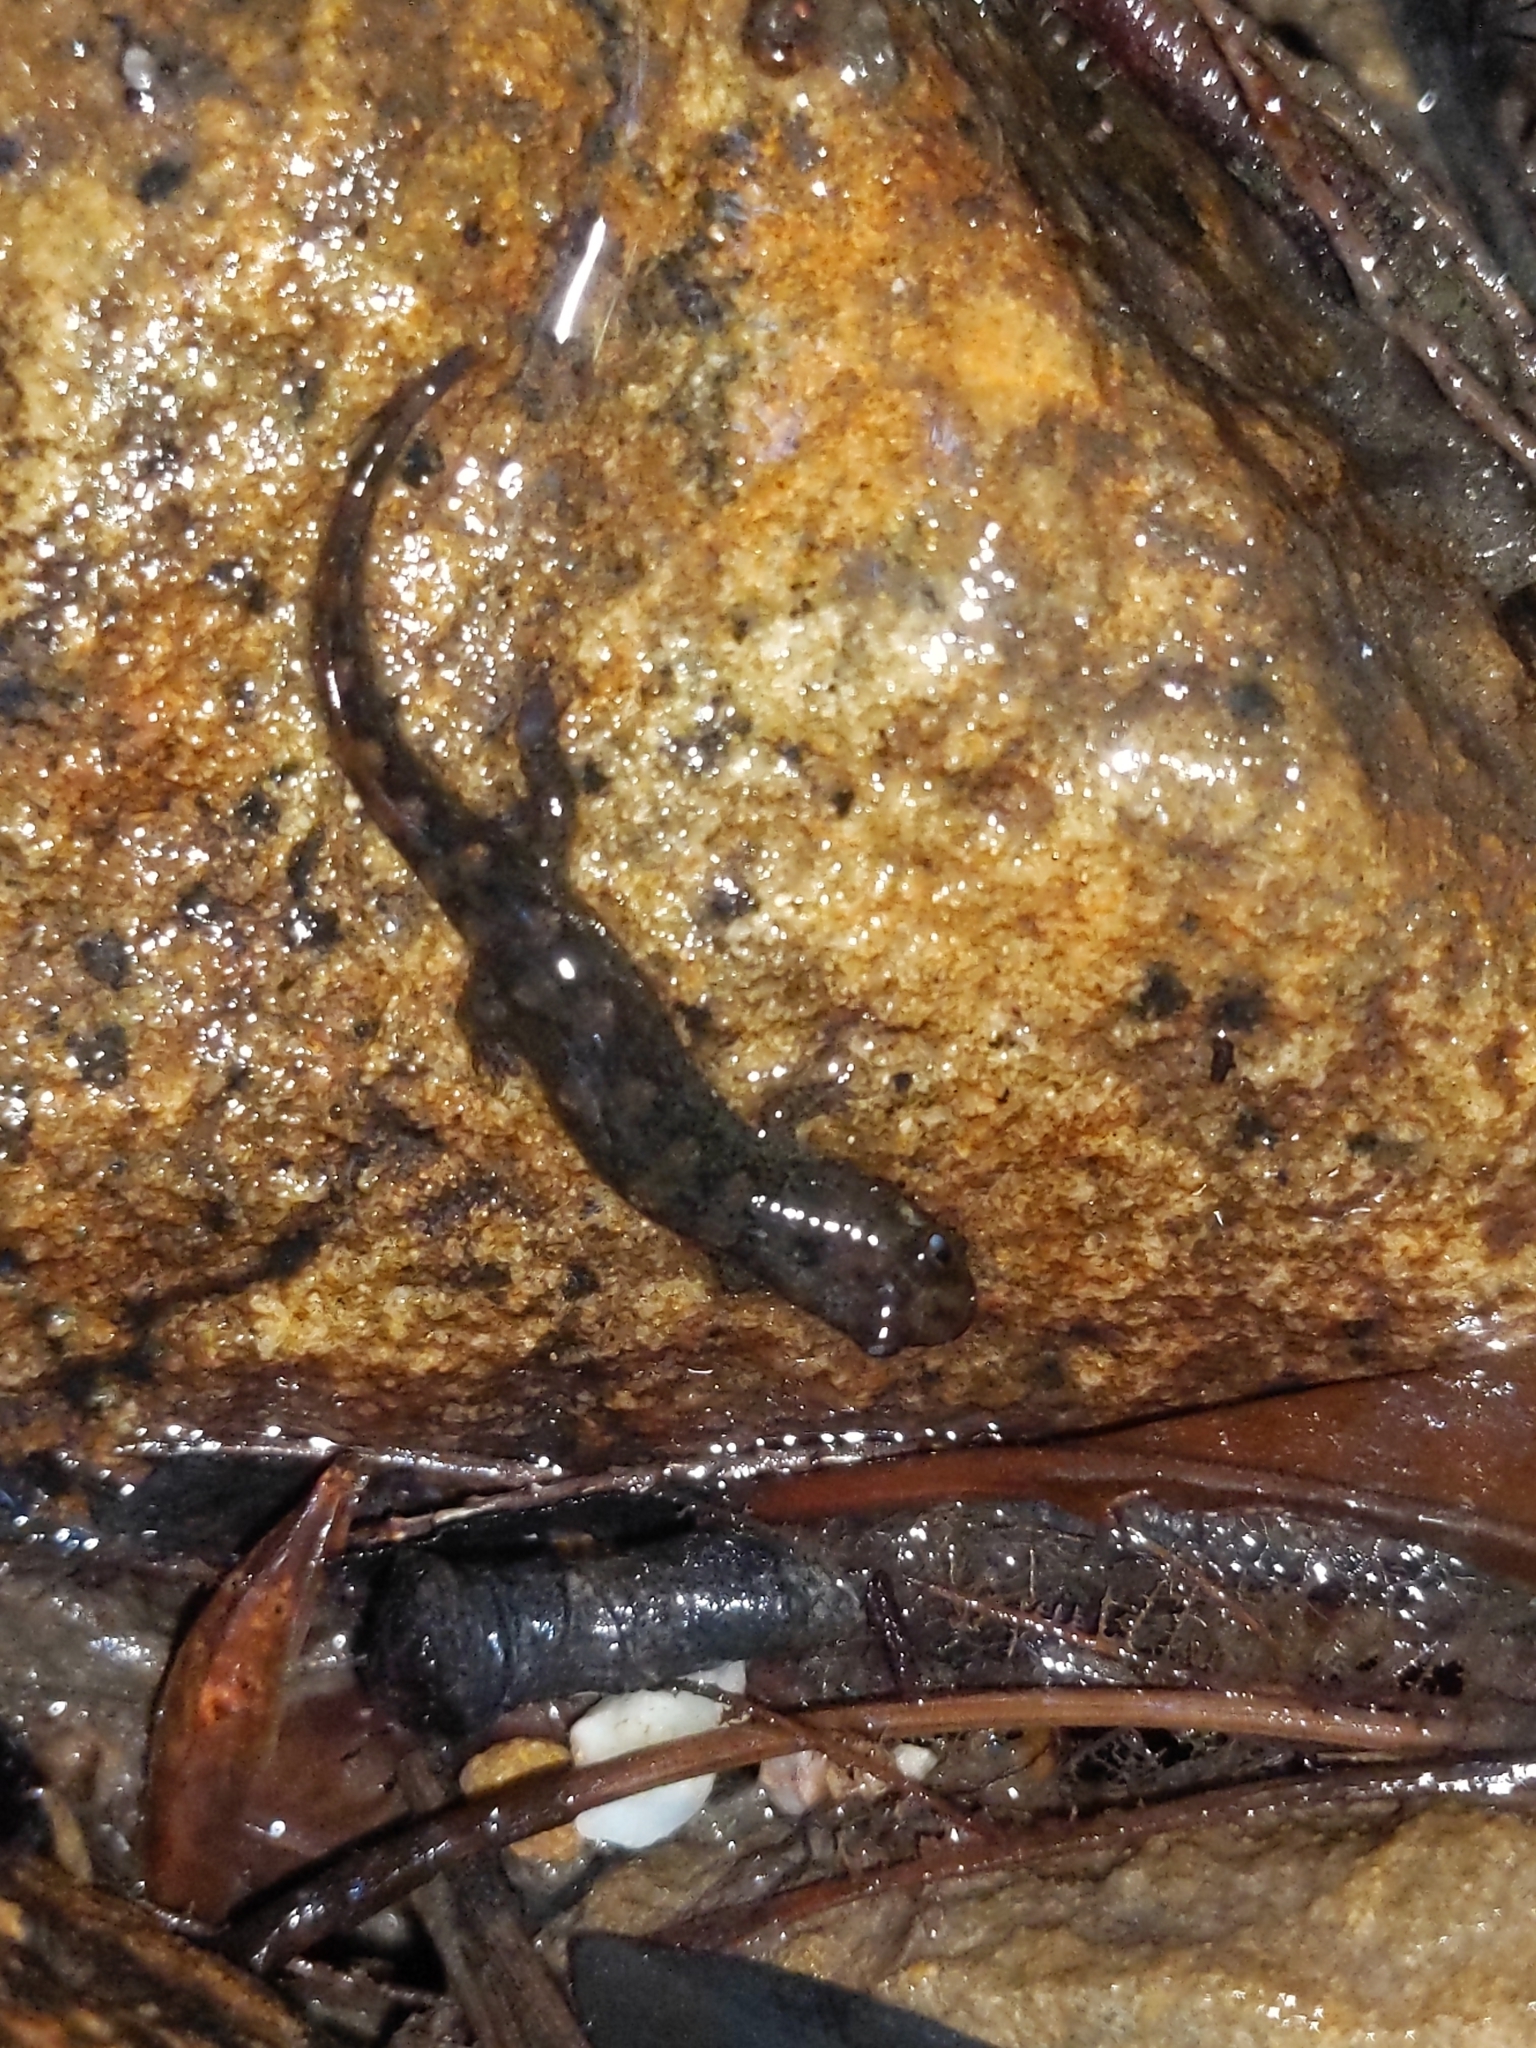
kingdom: Animalia
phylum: Chordata
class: Amphibia
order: Caudata
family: Plethodontidae
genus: Desmognathus
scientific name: Desmognathus monticola
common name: Seal salamander
